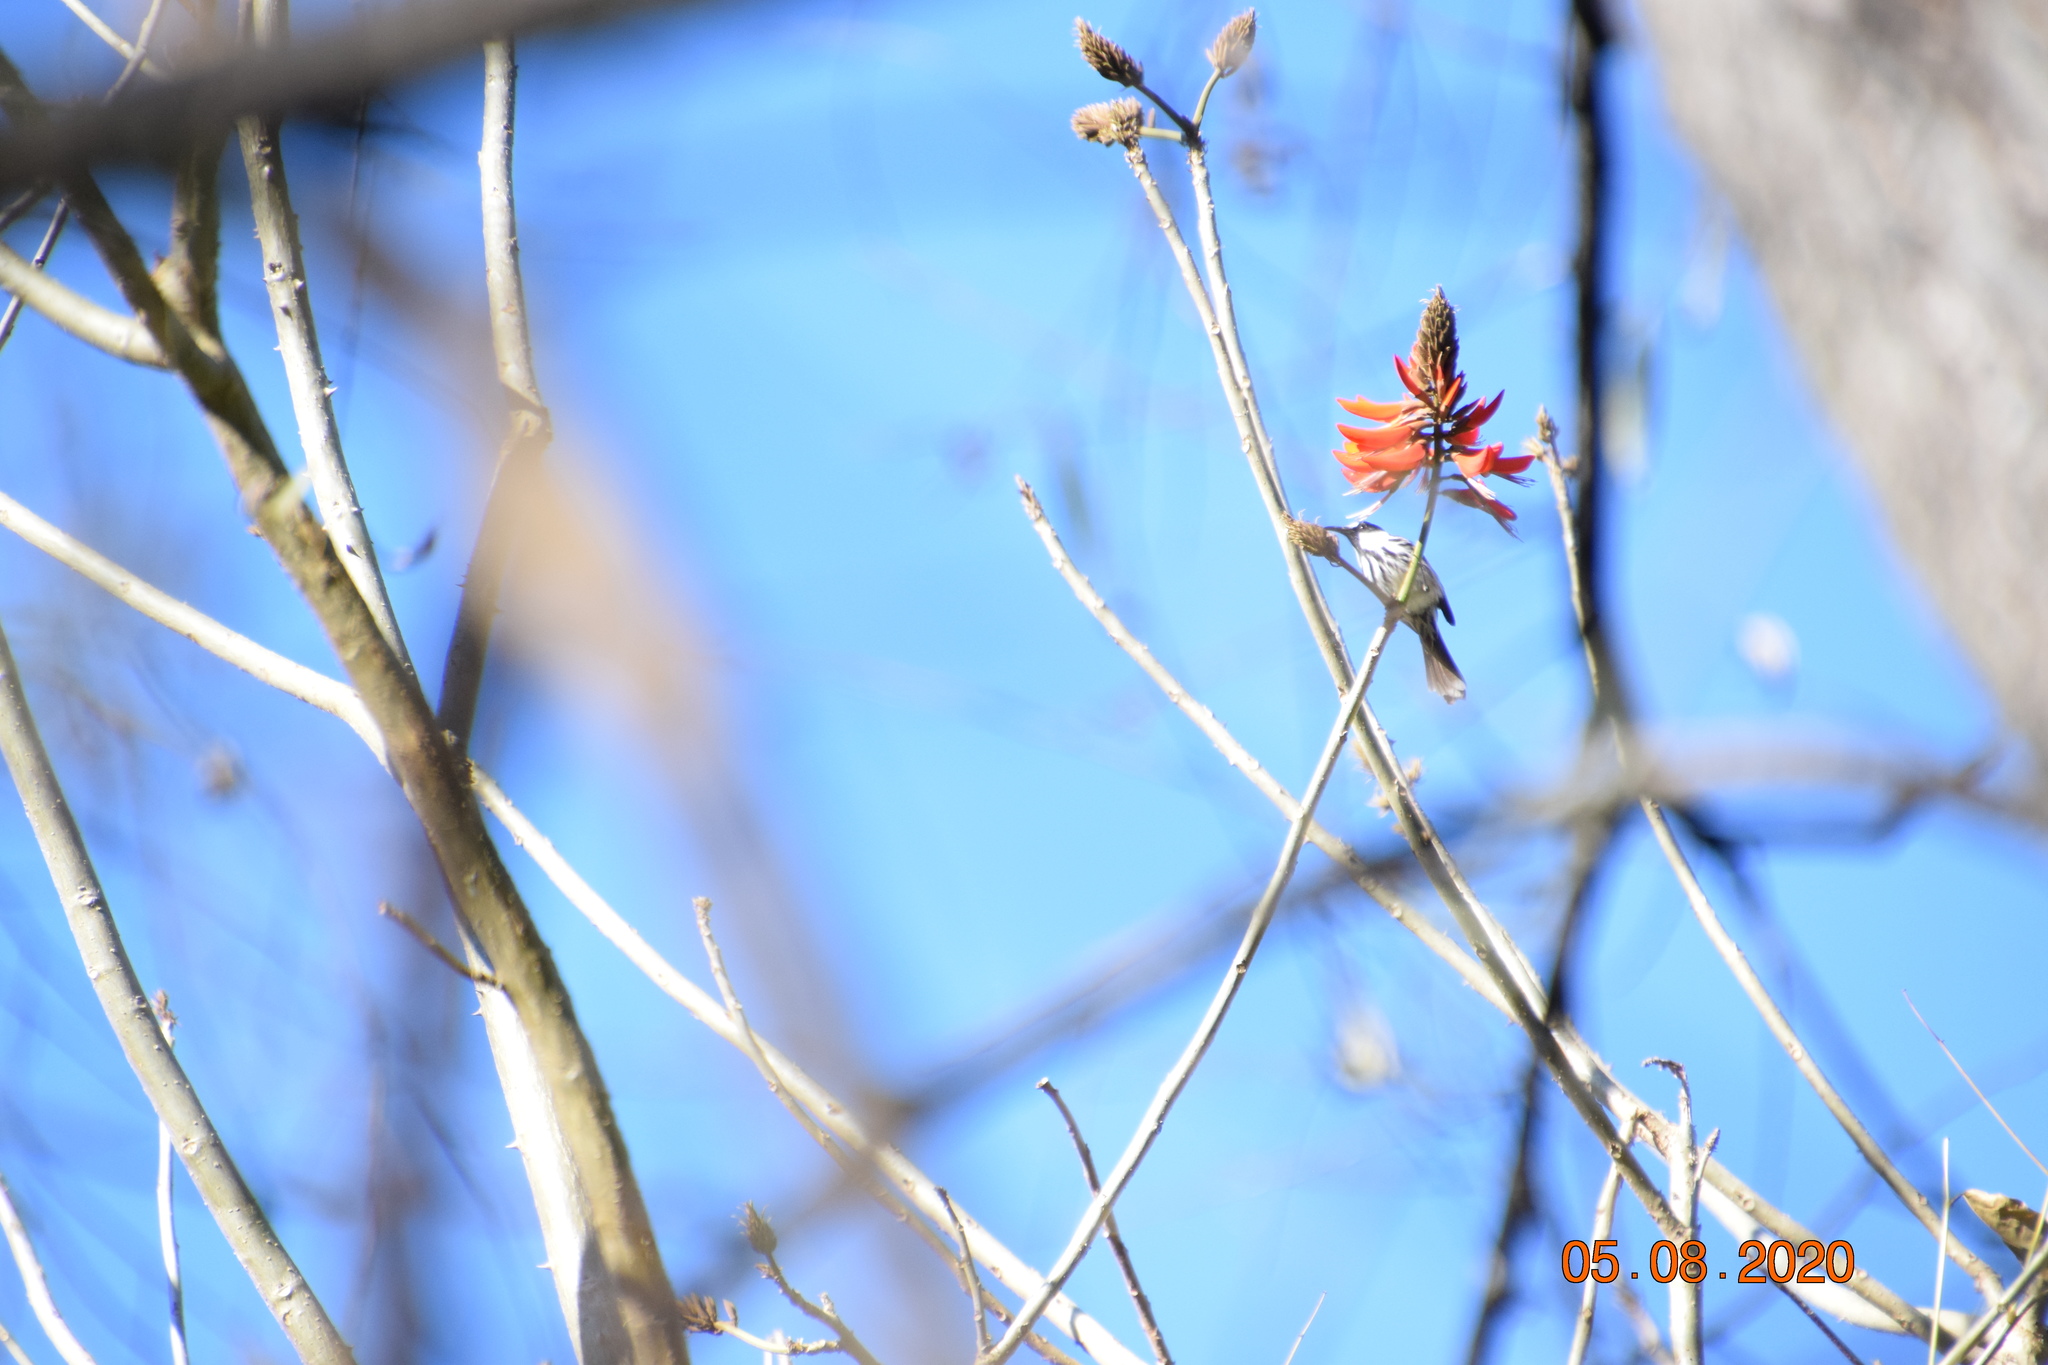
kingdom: Animalia
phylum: Chordata
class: Aves
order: Passeriformes
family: Meliphagidae
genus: Phylidonyris
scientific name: Phylidonyris niger
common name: White-cheeked honeyeater
